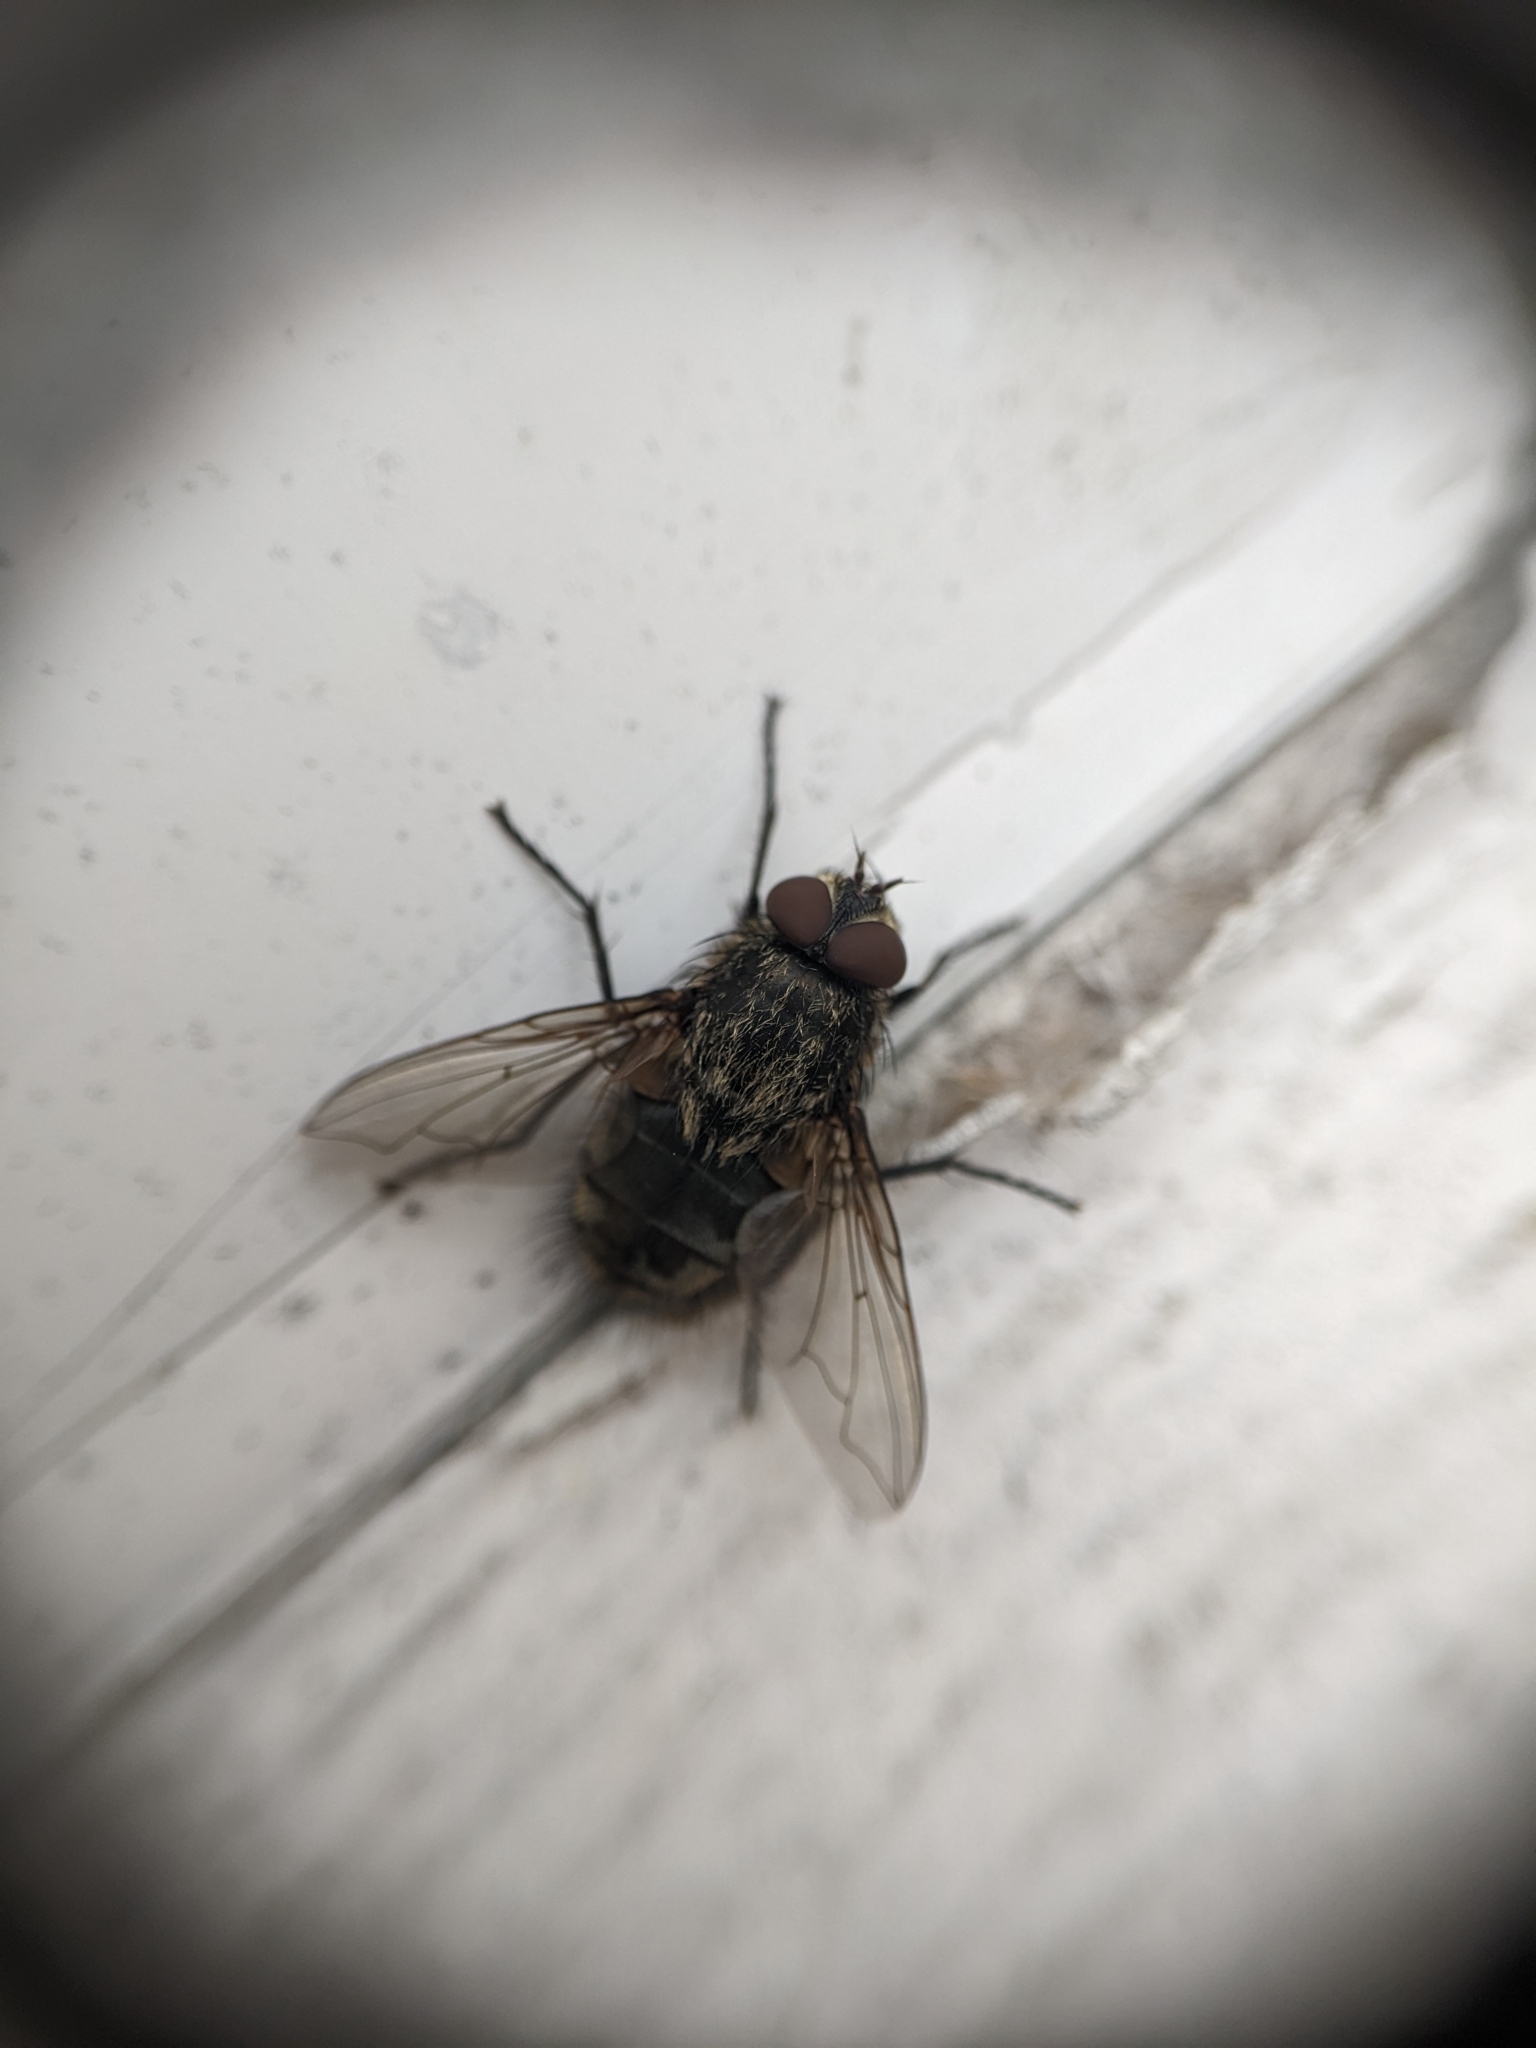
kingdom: Animalia
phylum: Arthropoda
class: Insecta
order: Diptera
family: Polleniidae
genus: Pollenia
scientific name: Pollenia
